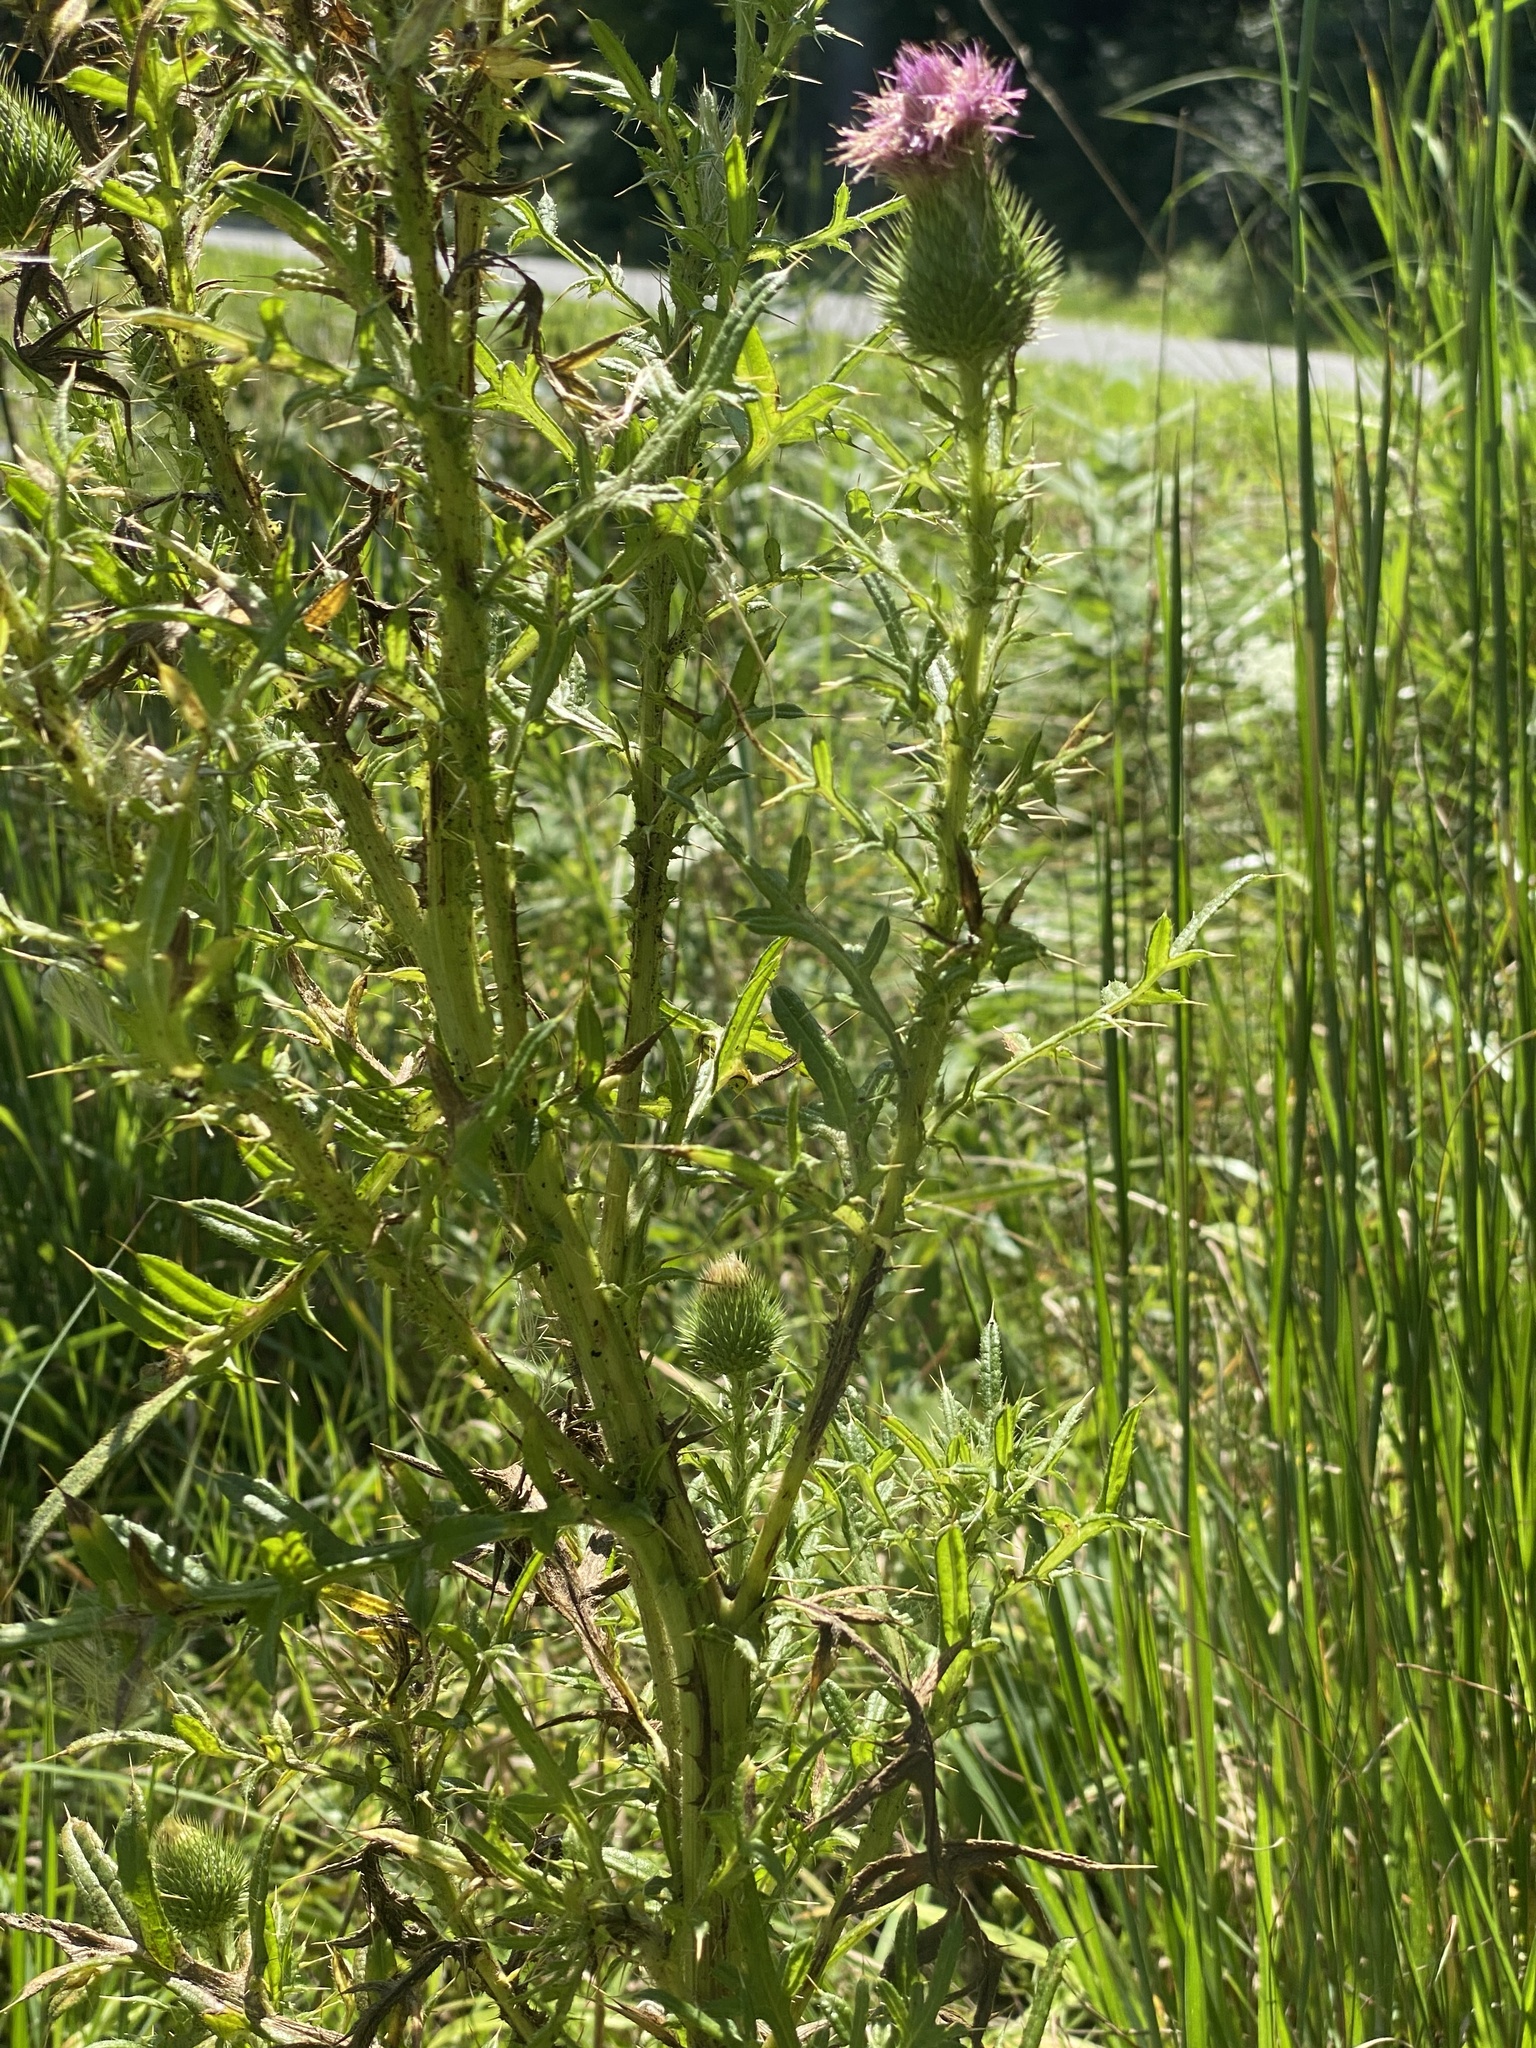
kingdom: Plantae
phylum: Tracheophyta
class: Magnoliopsida
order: Asterales
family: Asteraceae
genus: Cirsium
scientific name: Cirsium vulgare
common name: Bull thistle
